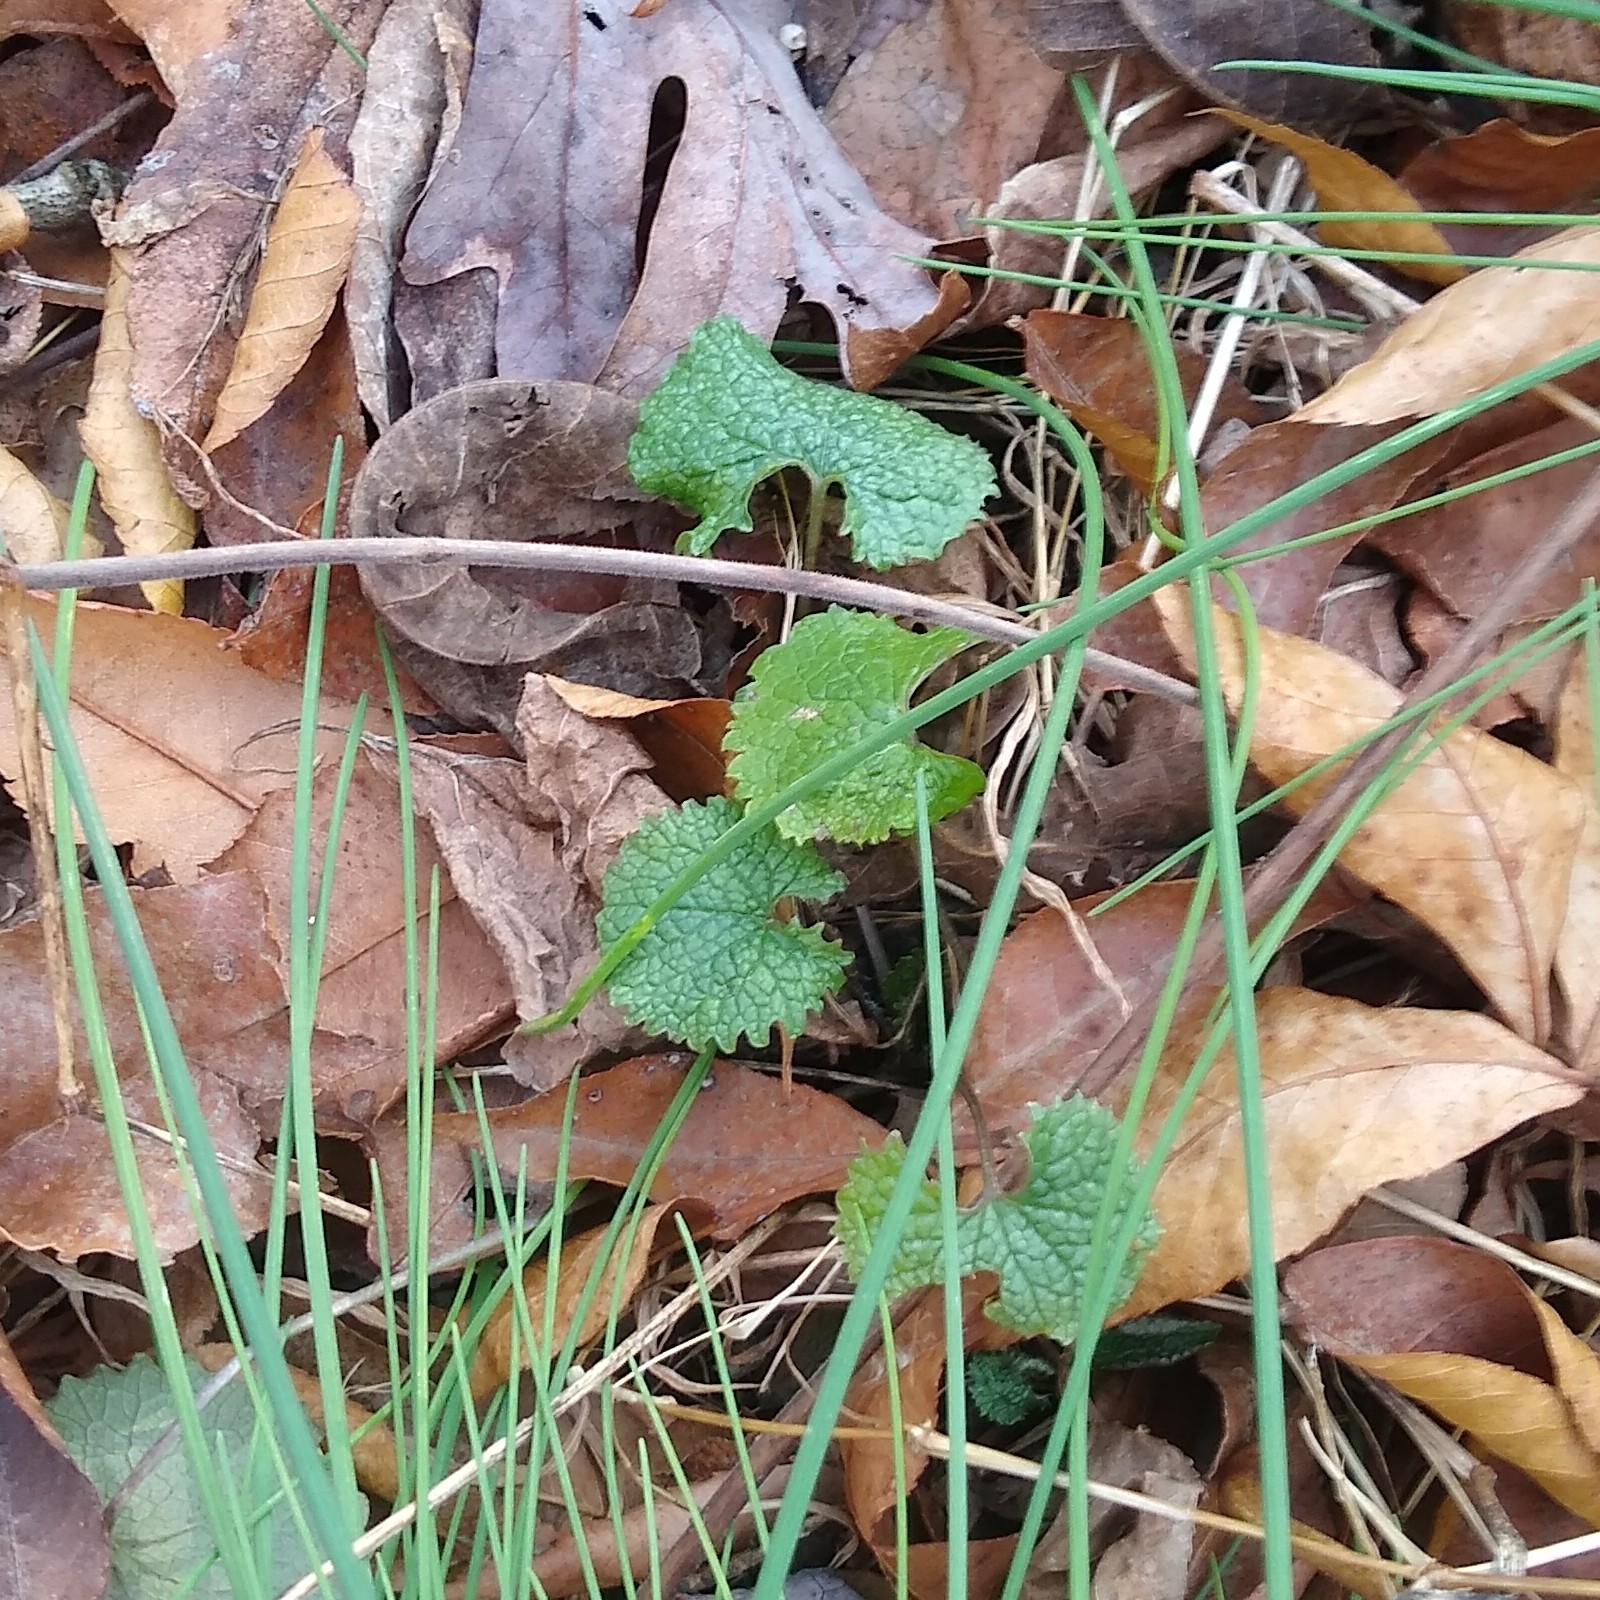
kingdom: Plantae
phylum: Tracheophyta
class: Magnoliopsida
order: Brassicales
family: Brassicaceae
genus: Alliaria
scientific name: Alliaria petiolata
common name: Garlic mustard
